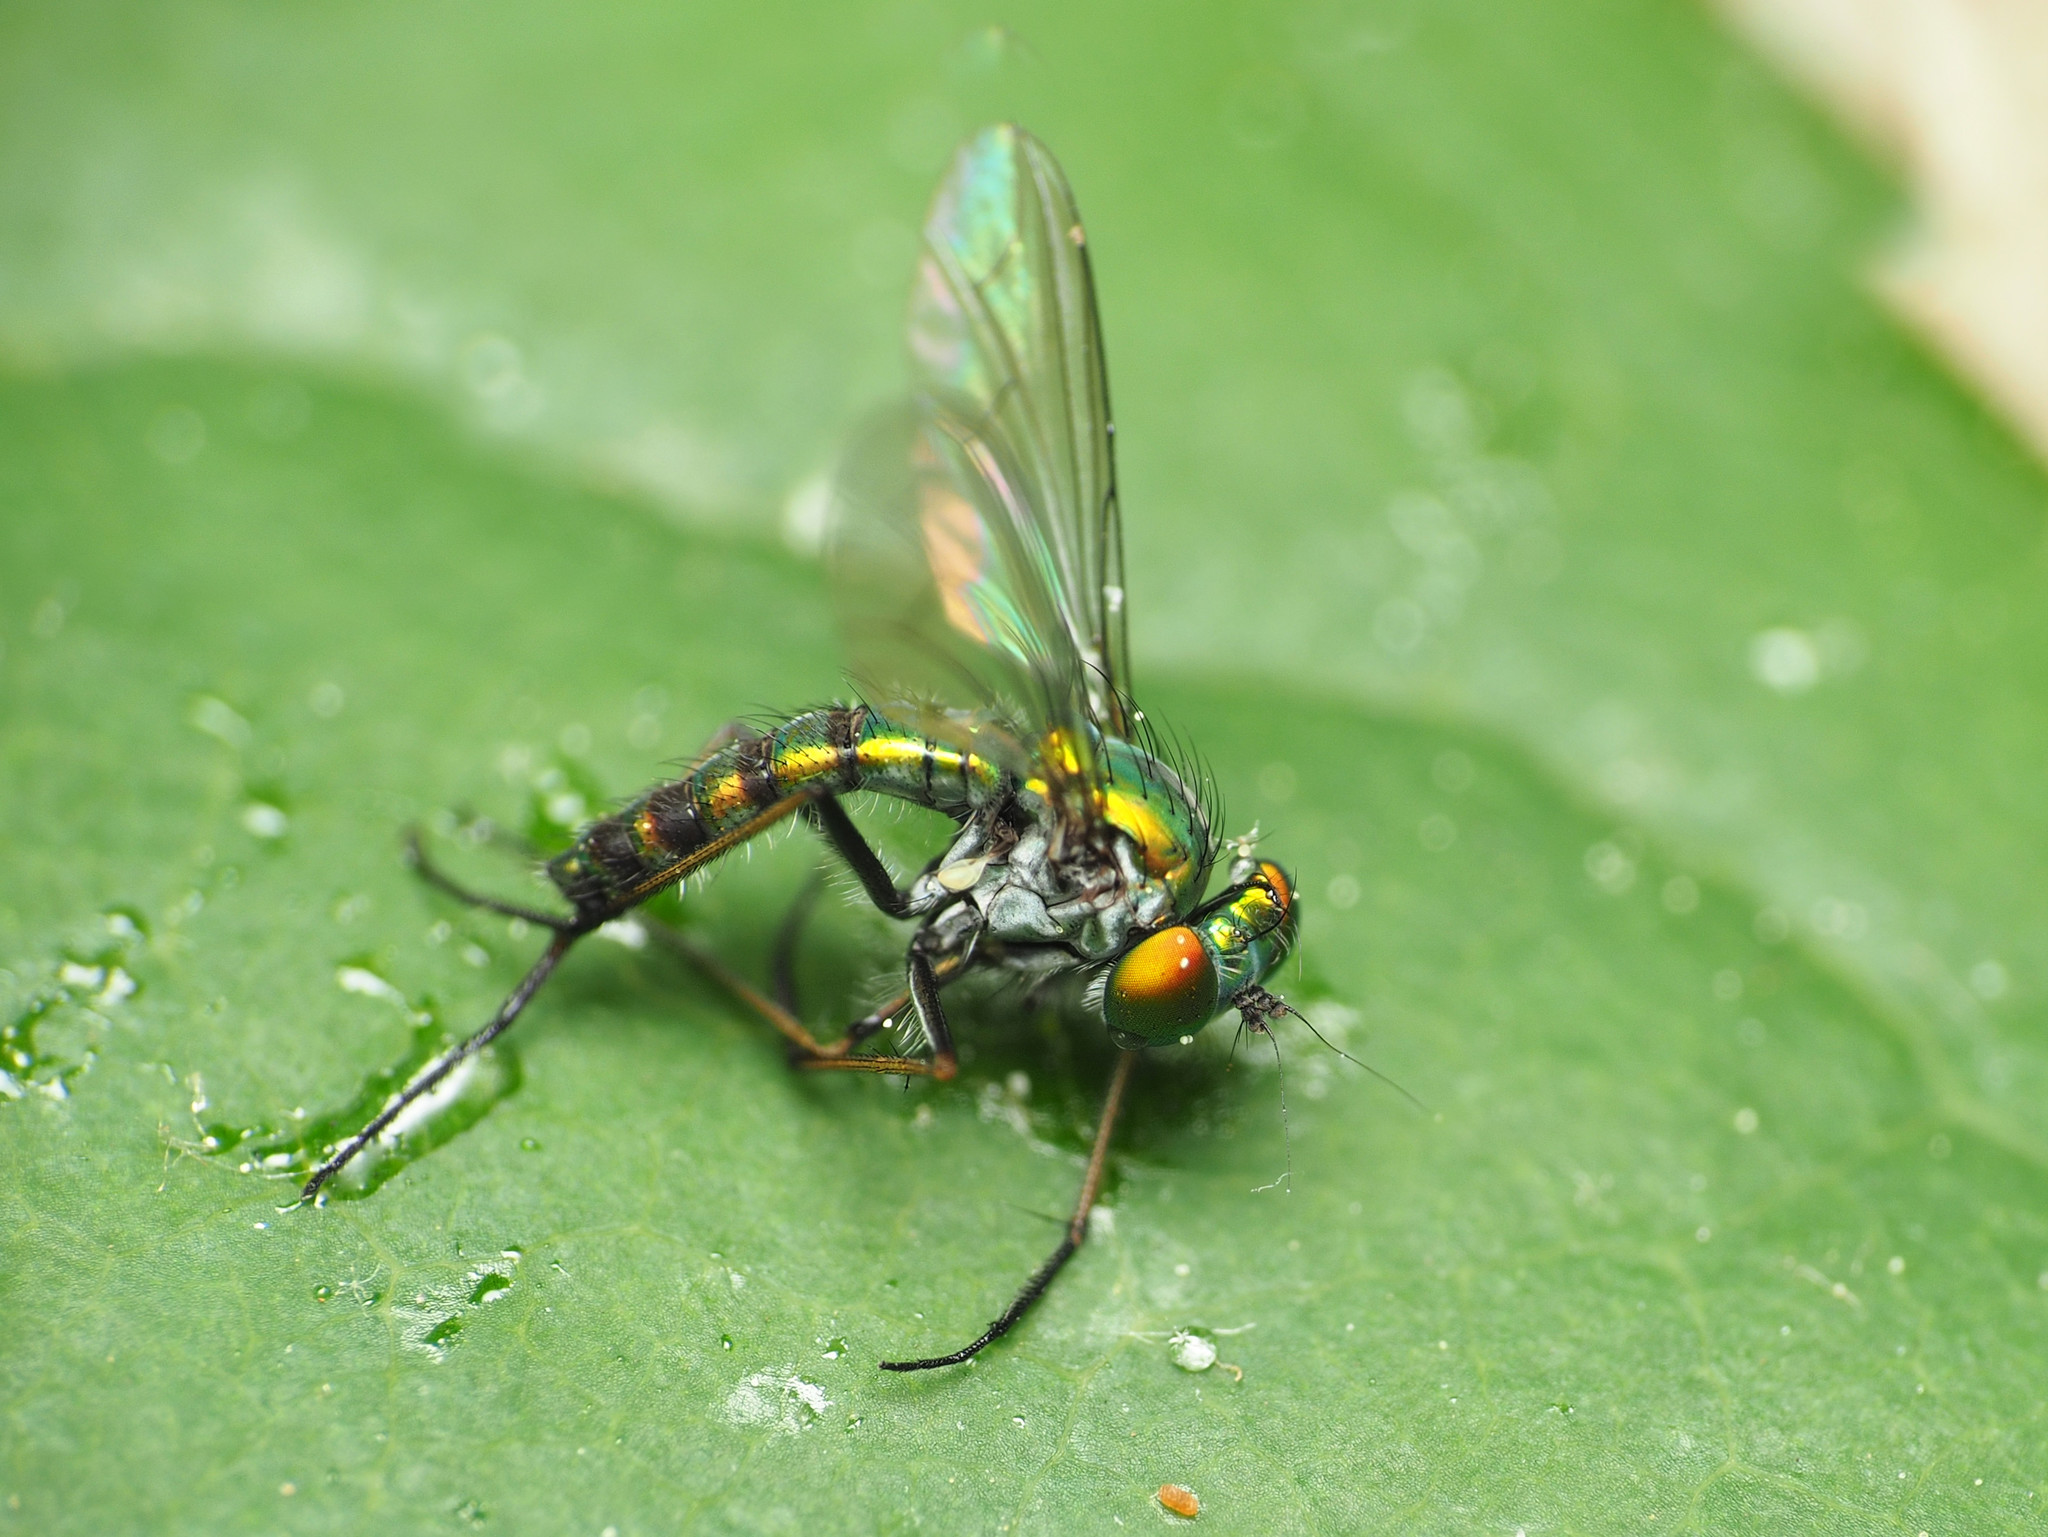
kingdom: Animalia
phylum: Arthropoda
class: Insecta
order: Diptera
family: Dolichopodidae
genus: Condylostylus
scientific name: Condylostylus connectans
